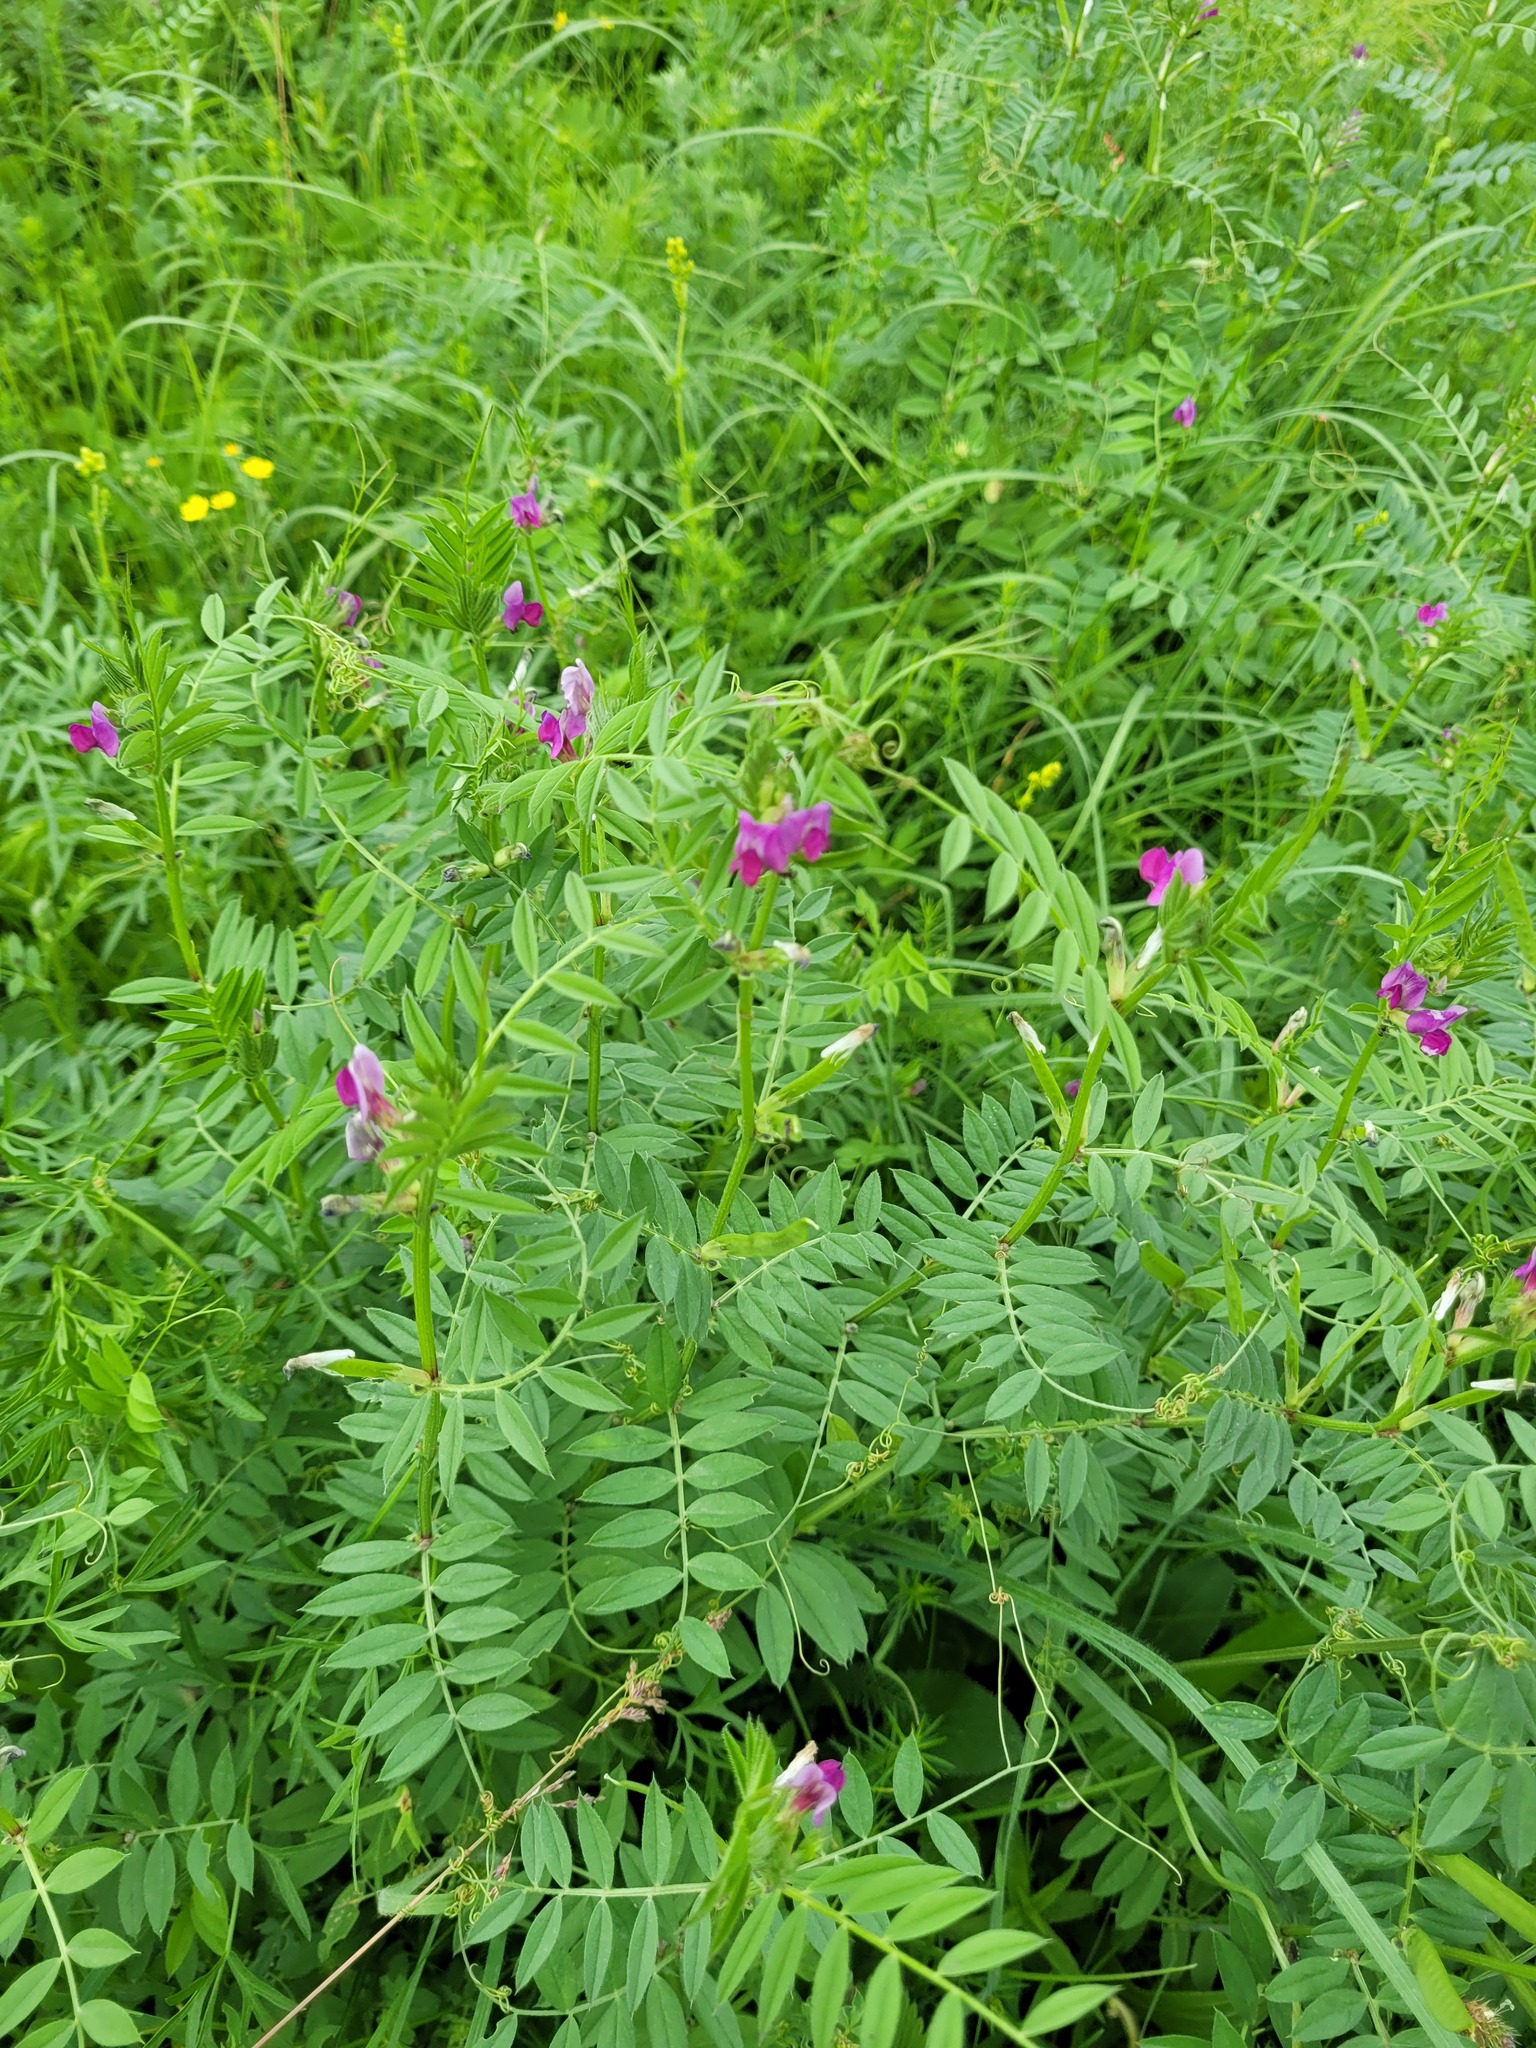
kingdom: Plantae
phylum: Tracheophyta
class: Magnoliopsida
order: Fabales
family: Fabaceae
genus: Vicia
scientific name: Vicia sativa
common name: Garden vetch
